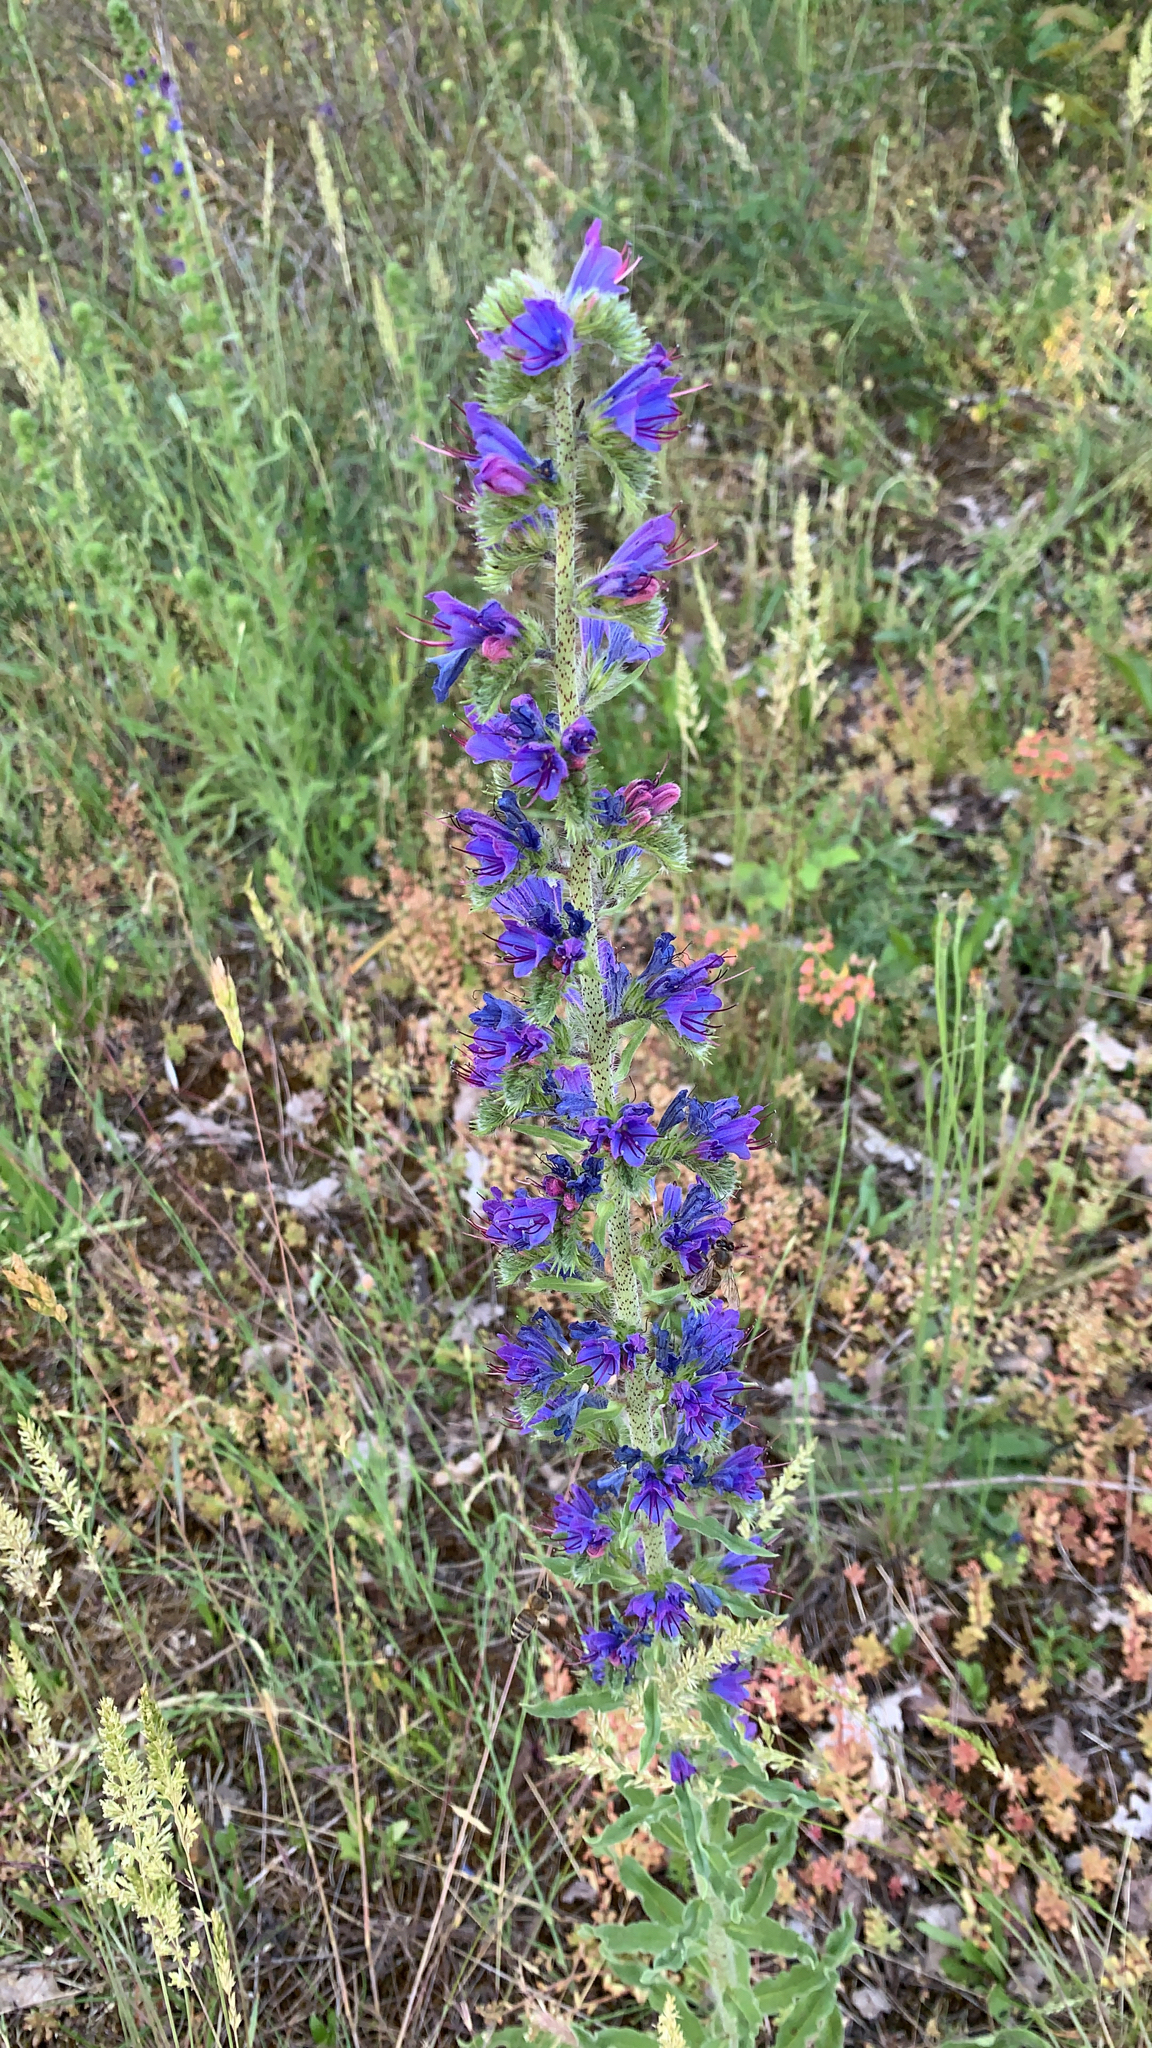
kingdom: Plantae
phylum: Tracheophyta
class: Magnoliopsida
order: Boraginales
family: Boraginaceae
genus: Echium
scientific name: Echium vulgare
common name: Common viper's bugloss
